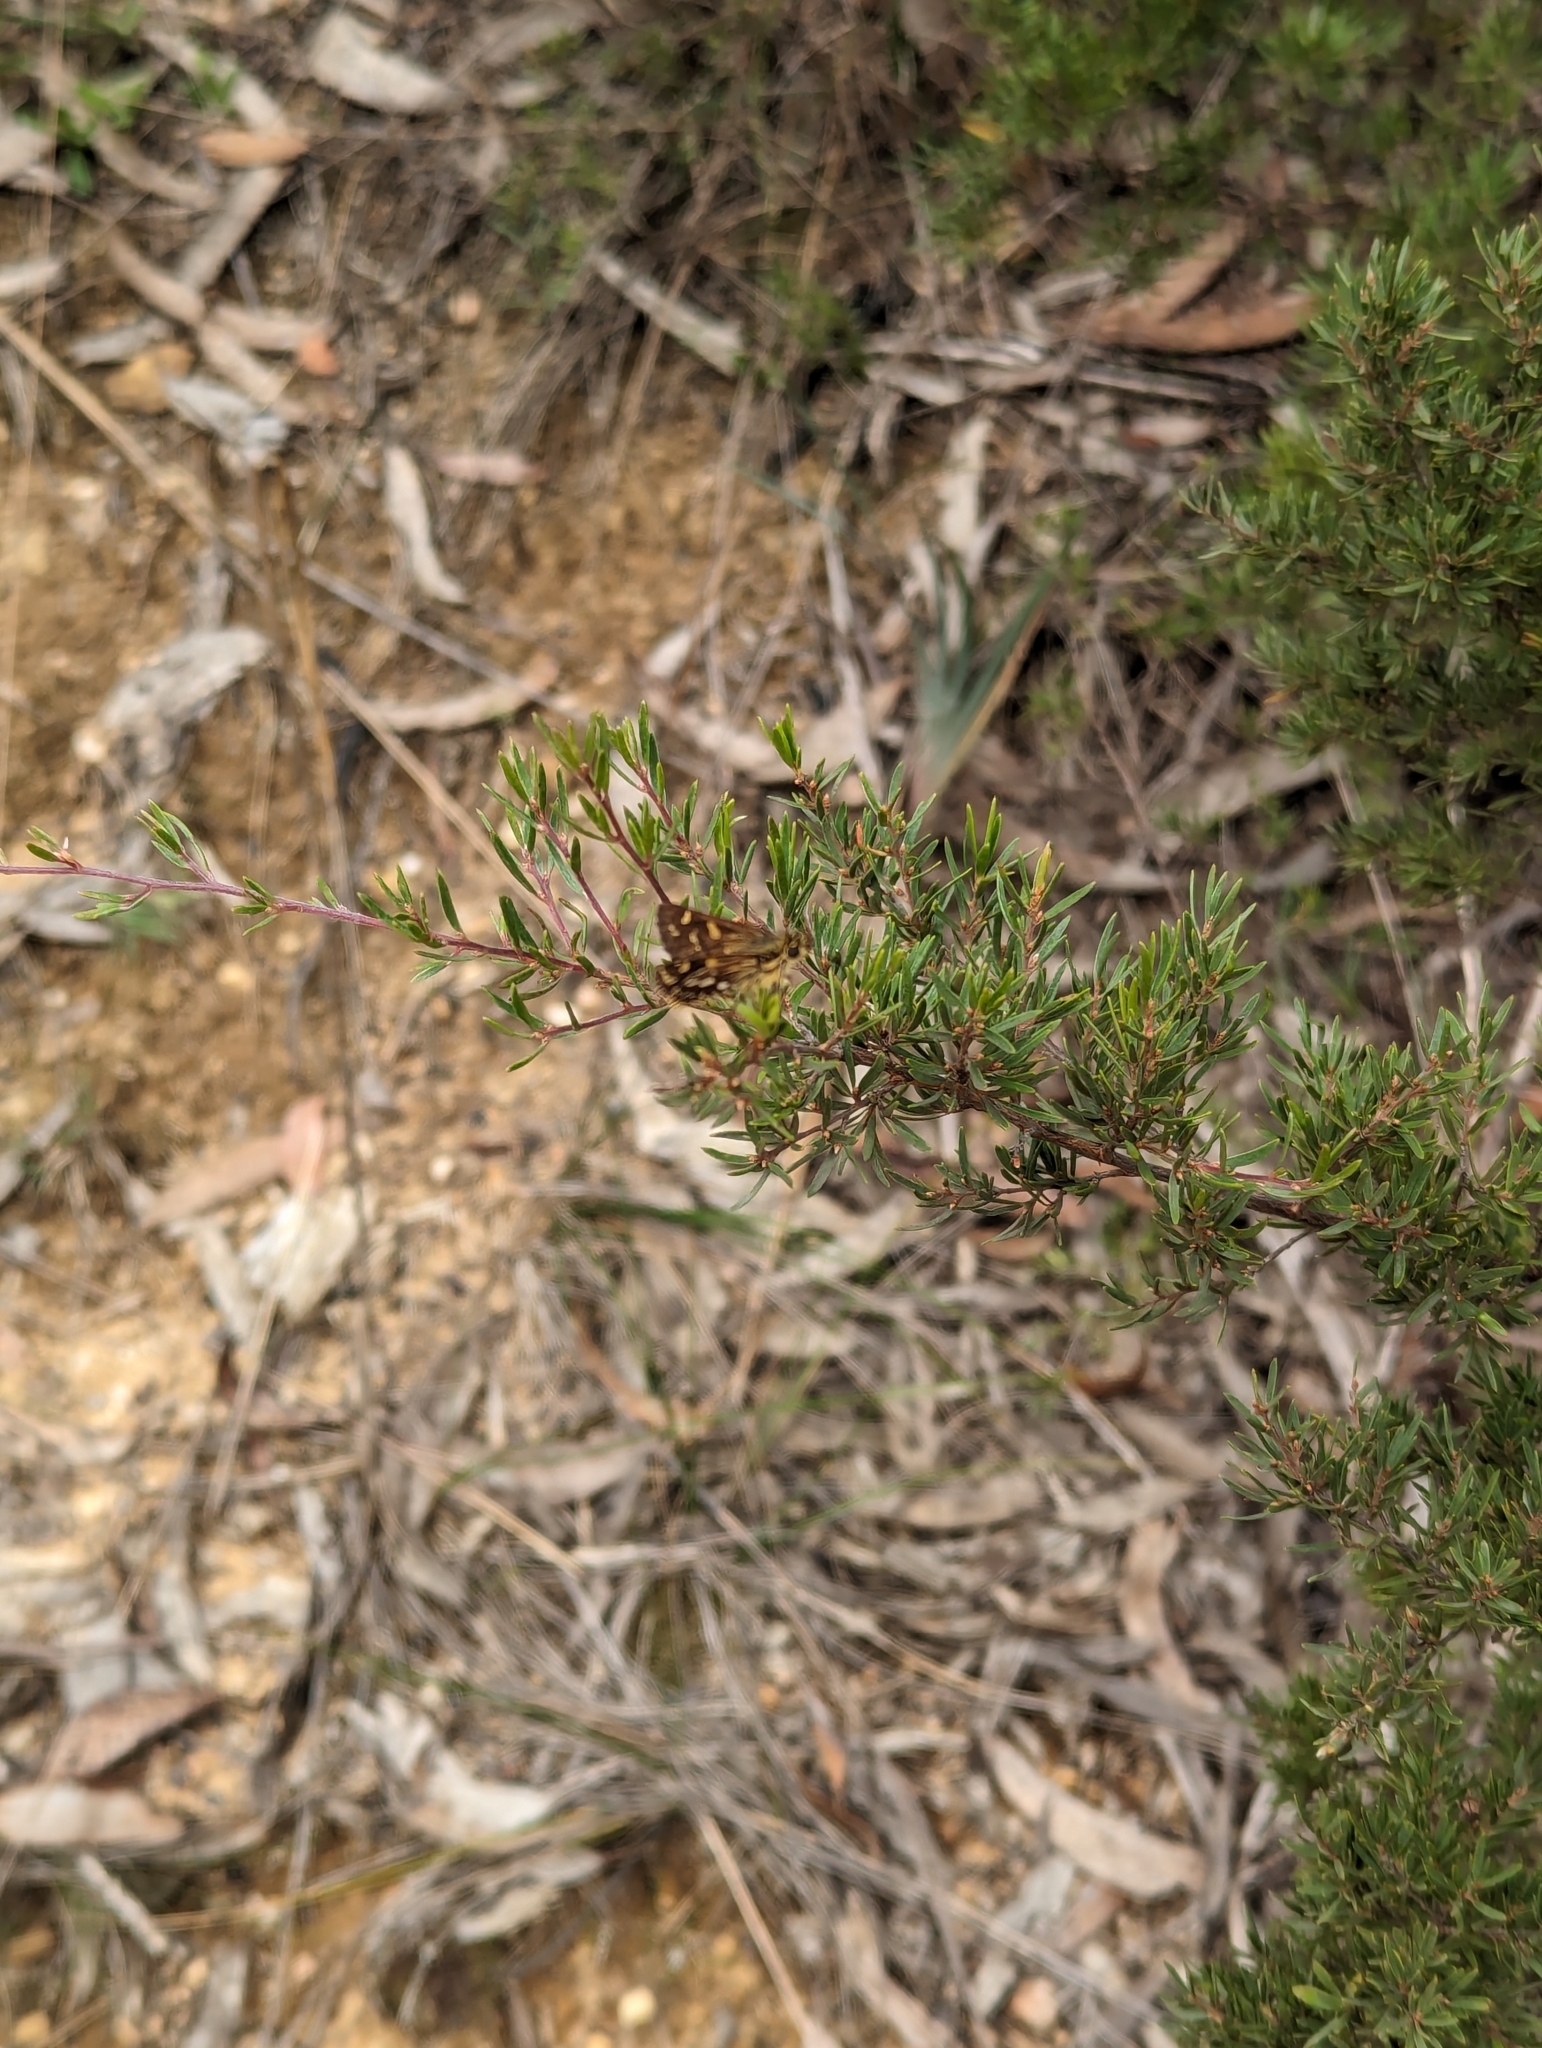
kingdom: Animalia
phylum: Arthropoda
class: Insecta
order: Lepidoptera
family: Hesperiidae
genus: Hesperilla
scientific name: Hesperilla crypsargyra
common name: Silver sedge-skipper
